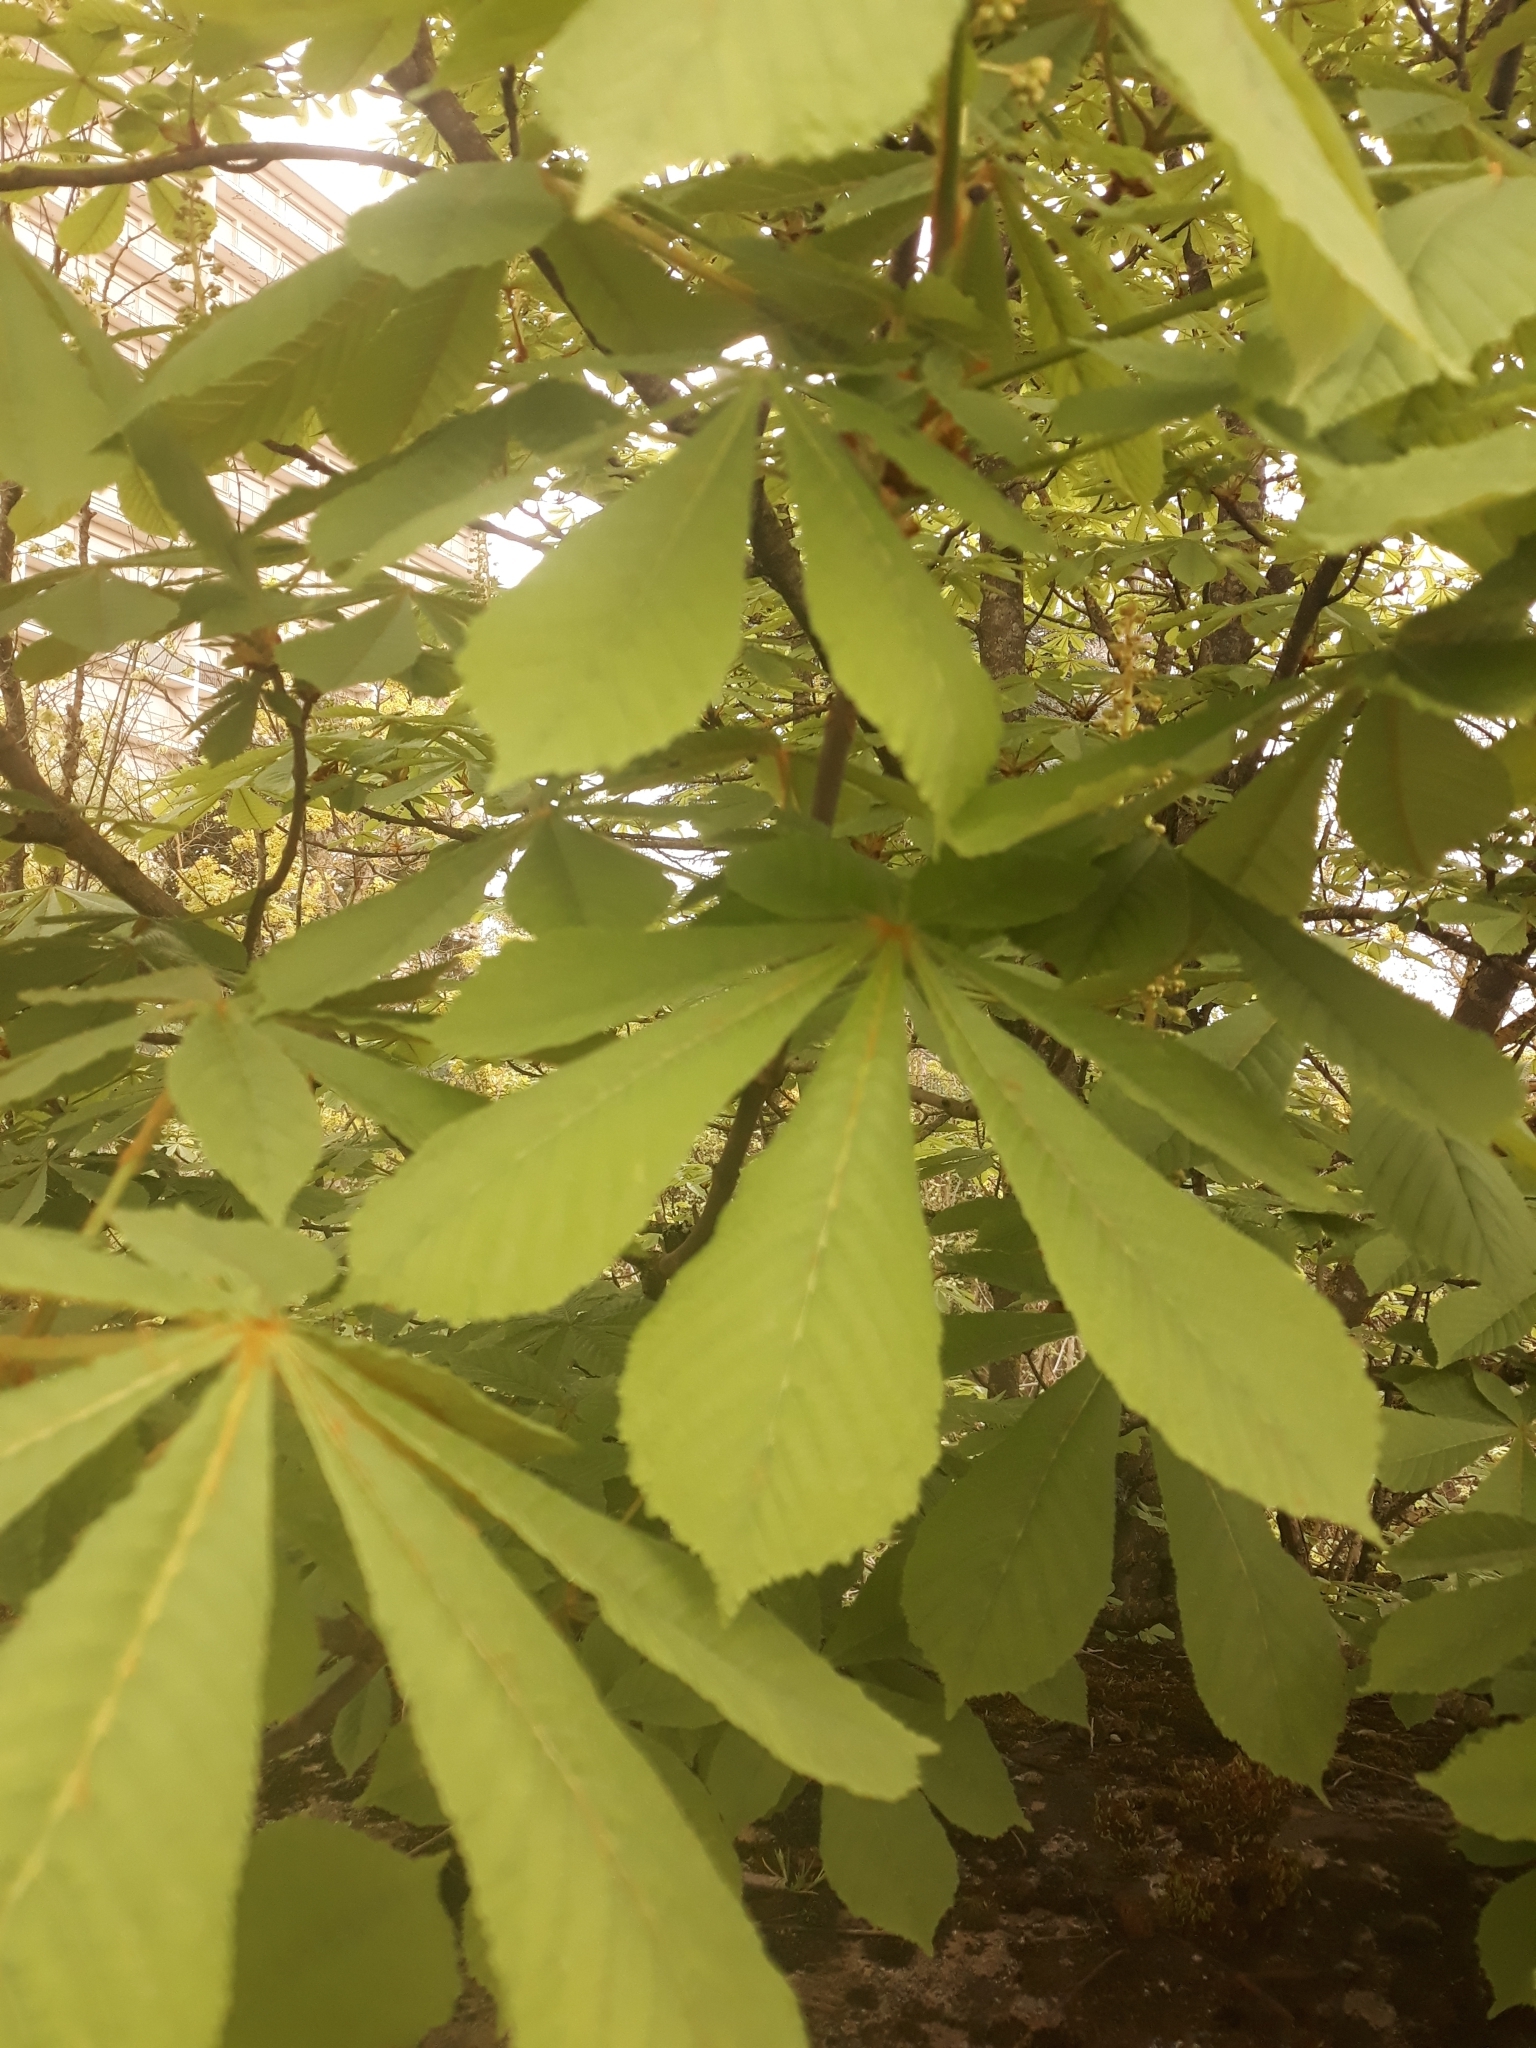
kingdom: Plantae
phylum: Tracheophyta
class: Magnoliopsida
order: Sapindales
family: Sapindaceae
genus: Aesculus
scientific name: Aesculus hippocastanum
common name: Horse-chestnut
